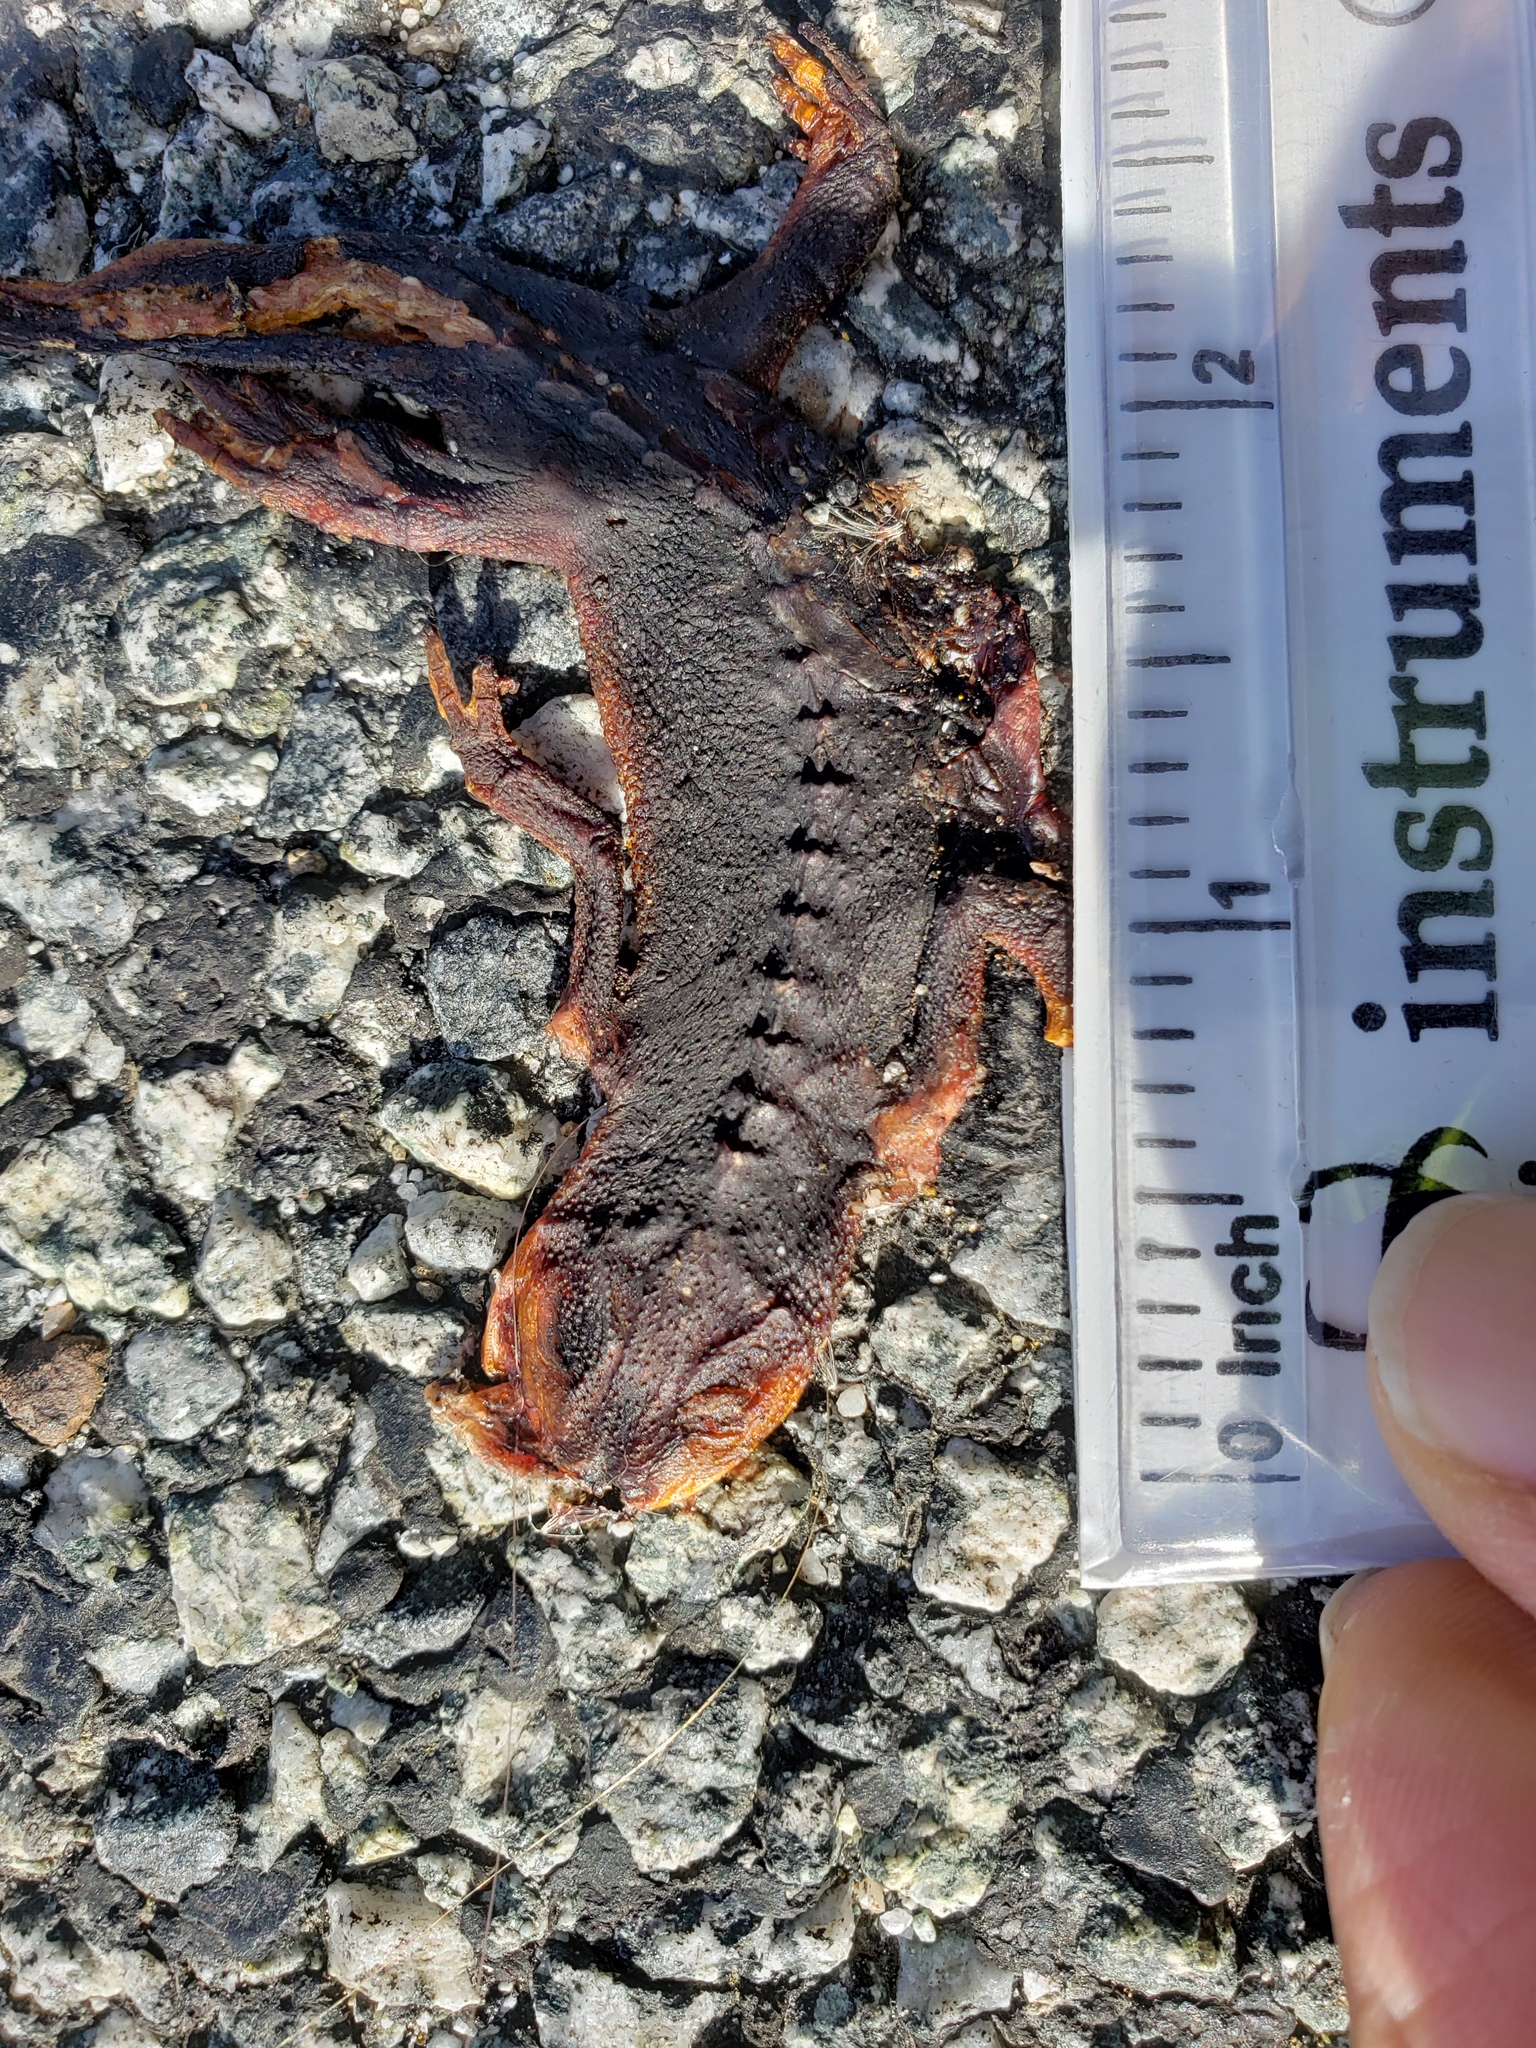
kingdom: Animalia
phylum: Chordata
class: Amphibia
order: Caudata
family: Salamandridae
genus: Taricha
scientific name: Taricha
